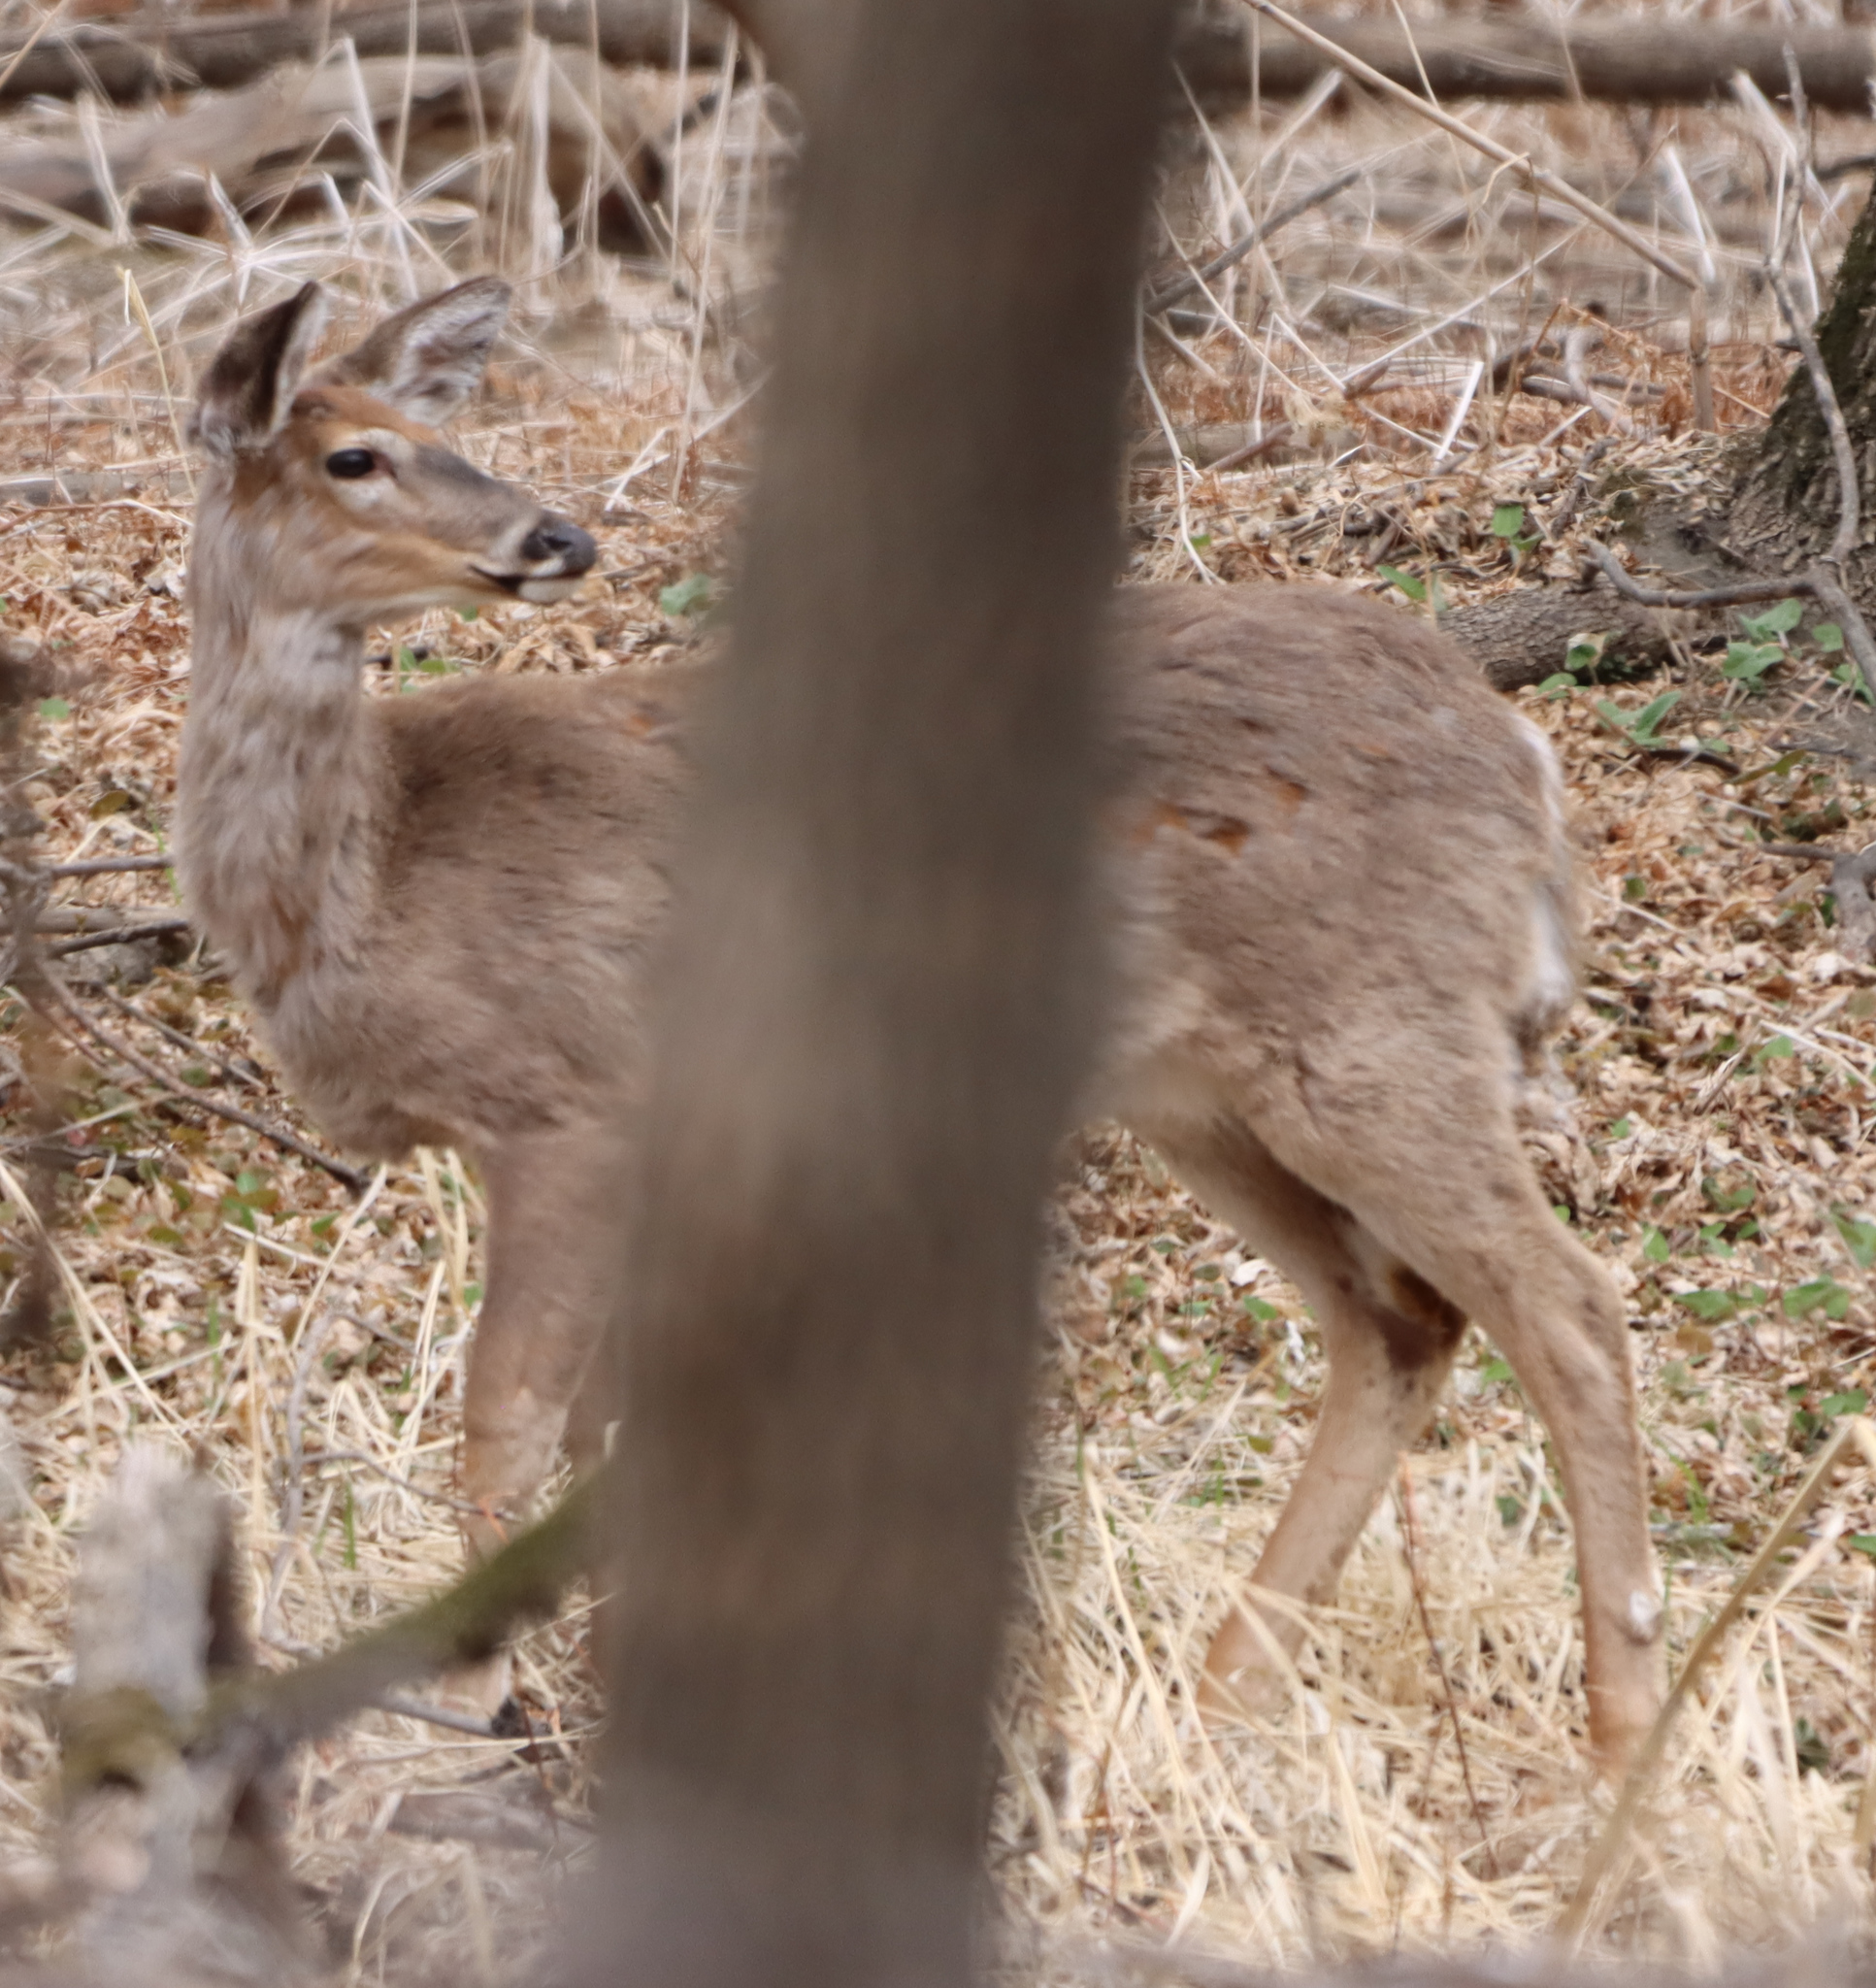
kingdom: Animalia
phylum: Chordata
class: Mammalia
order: Artiodactyla
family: Cervidae
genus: Odocoileus
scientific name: Odocoileus virginianus
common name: White-tailed deer
